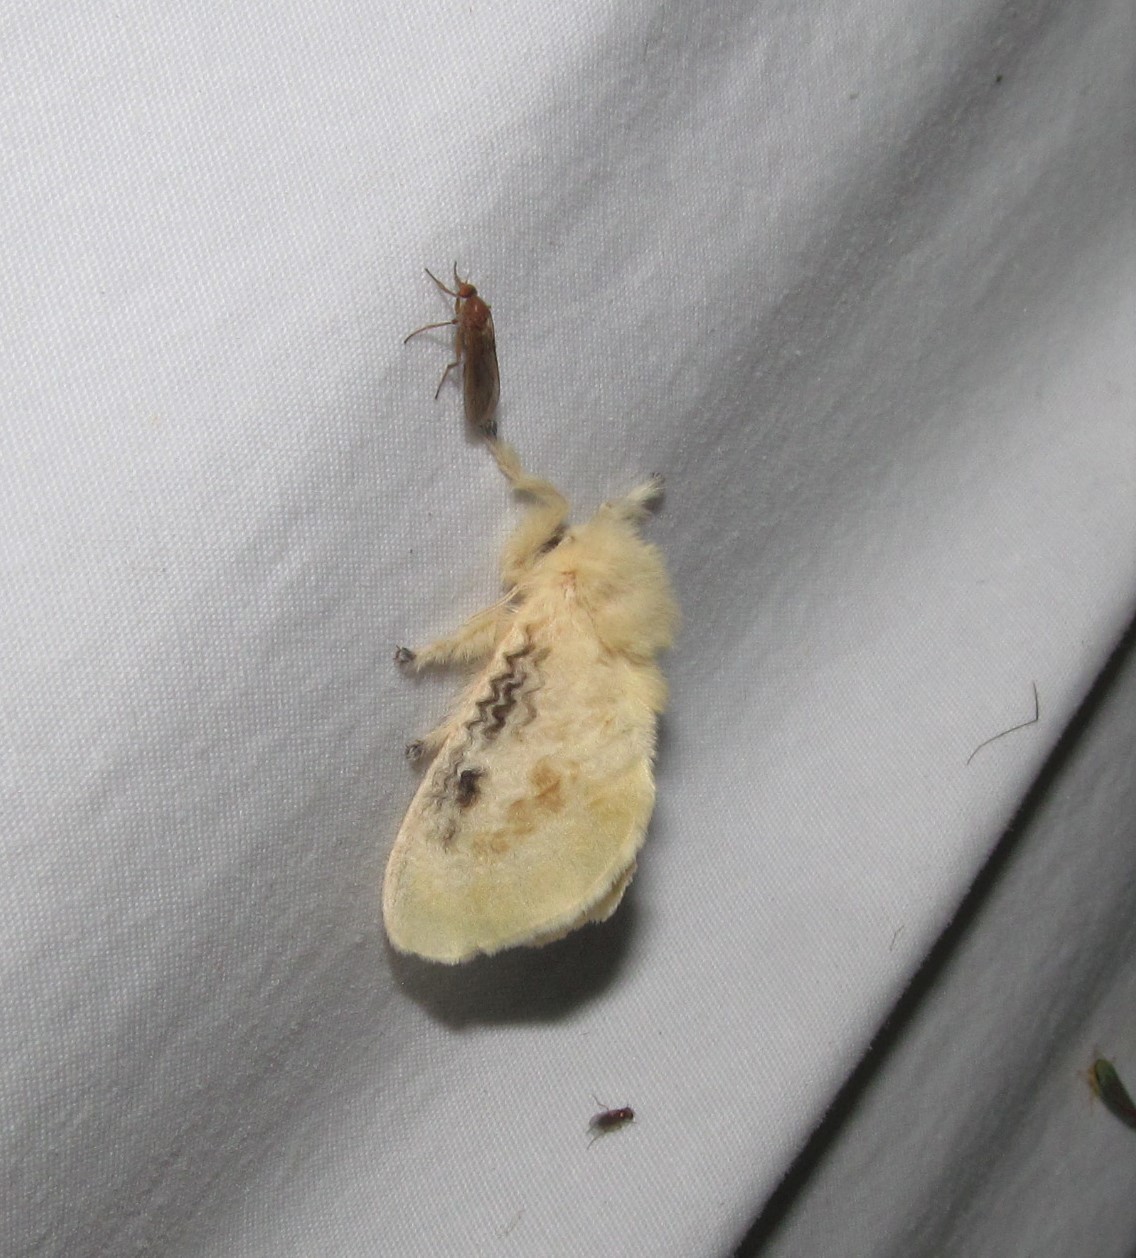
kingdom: Animalia
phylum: Arthropoda
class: Insecta
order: Lepidoptera
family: Megalopygidae
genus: Megalopyge
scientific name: Megalopyge crispata
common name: Black-waved flannel moth
